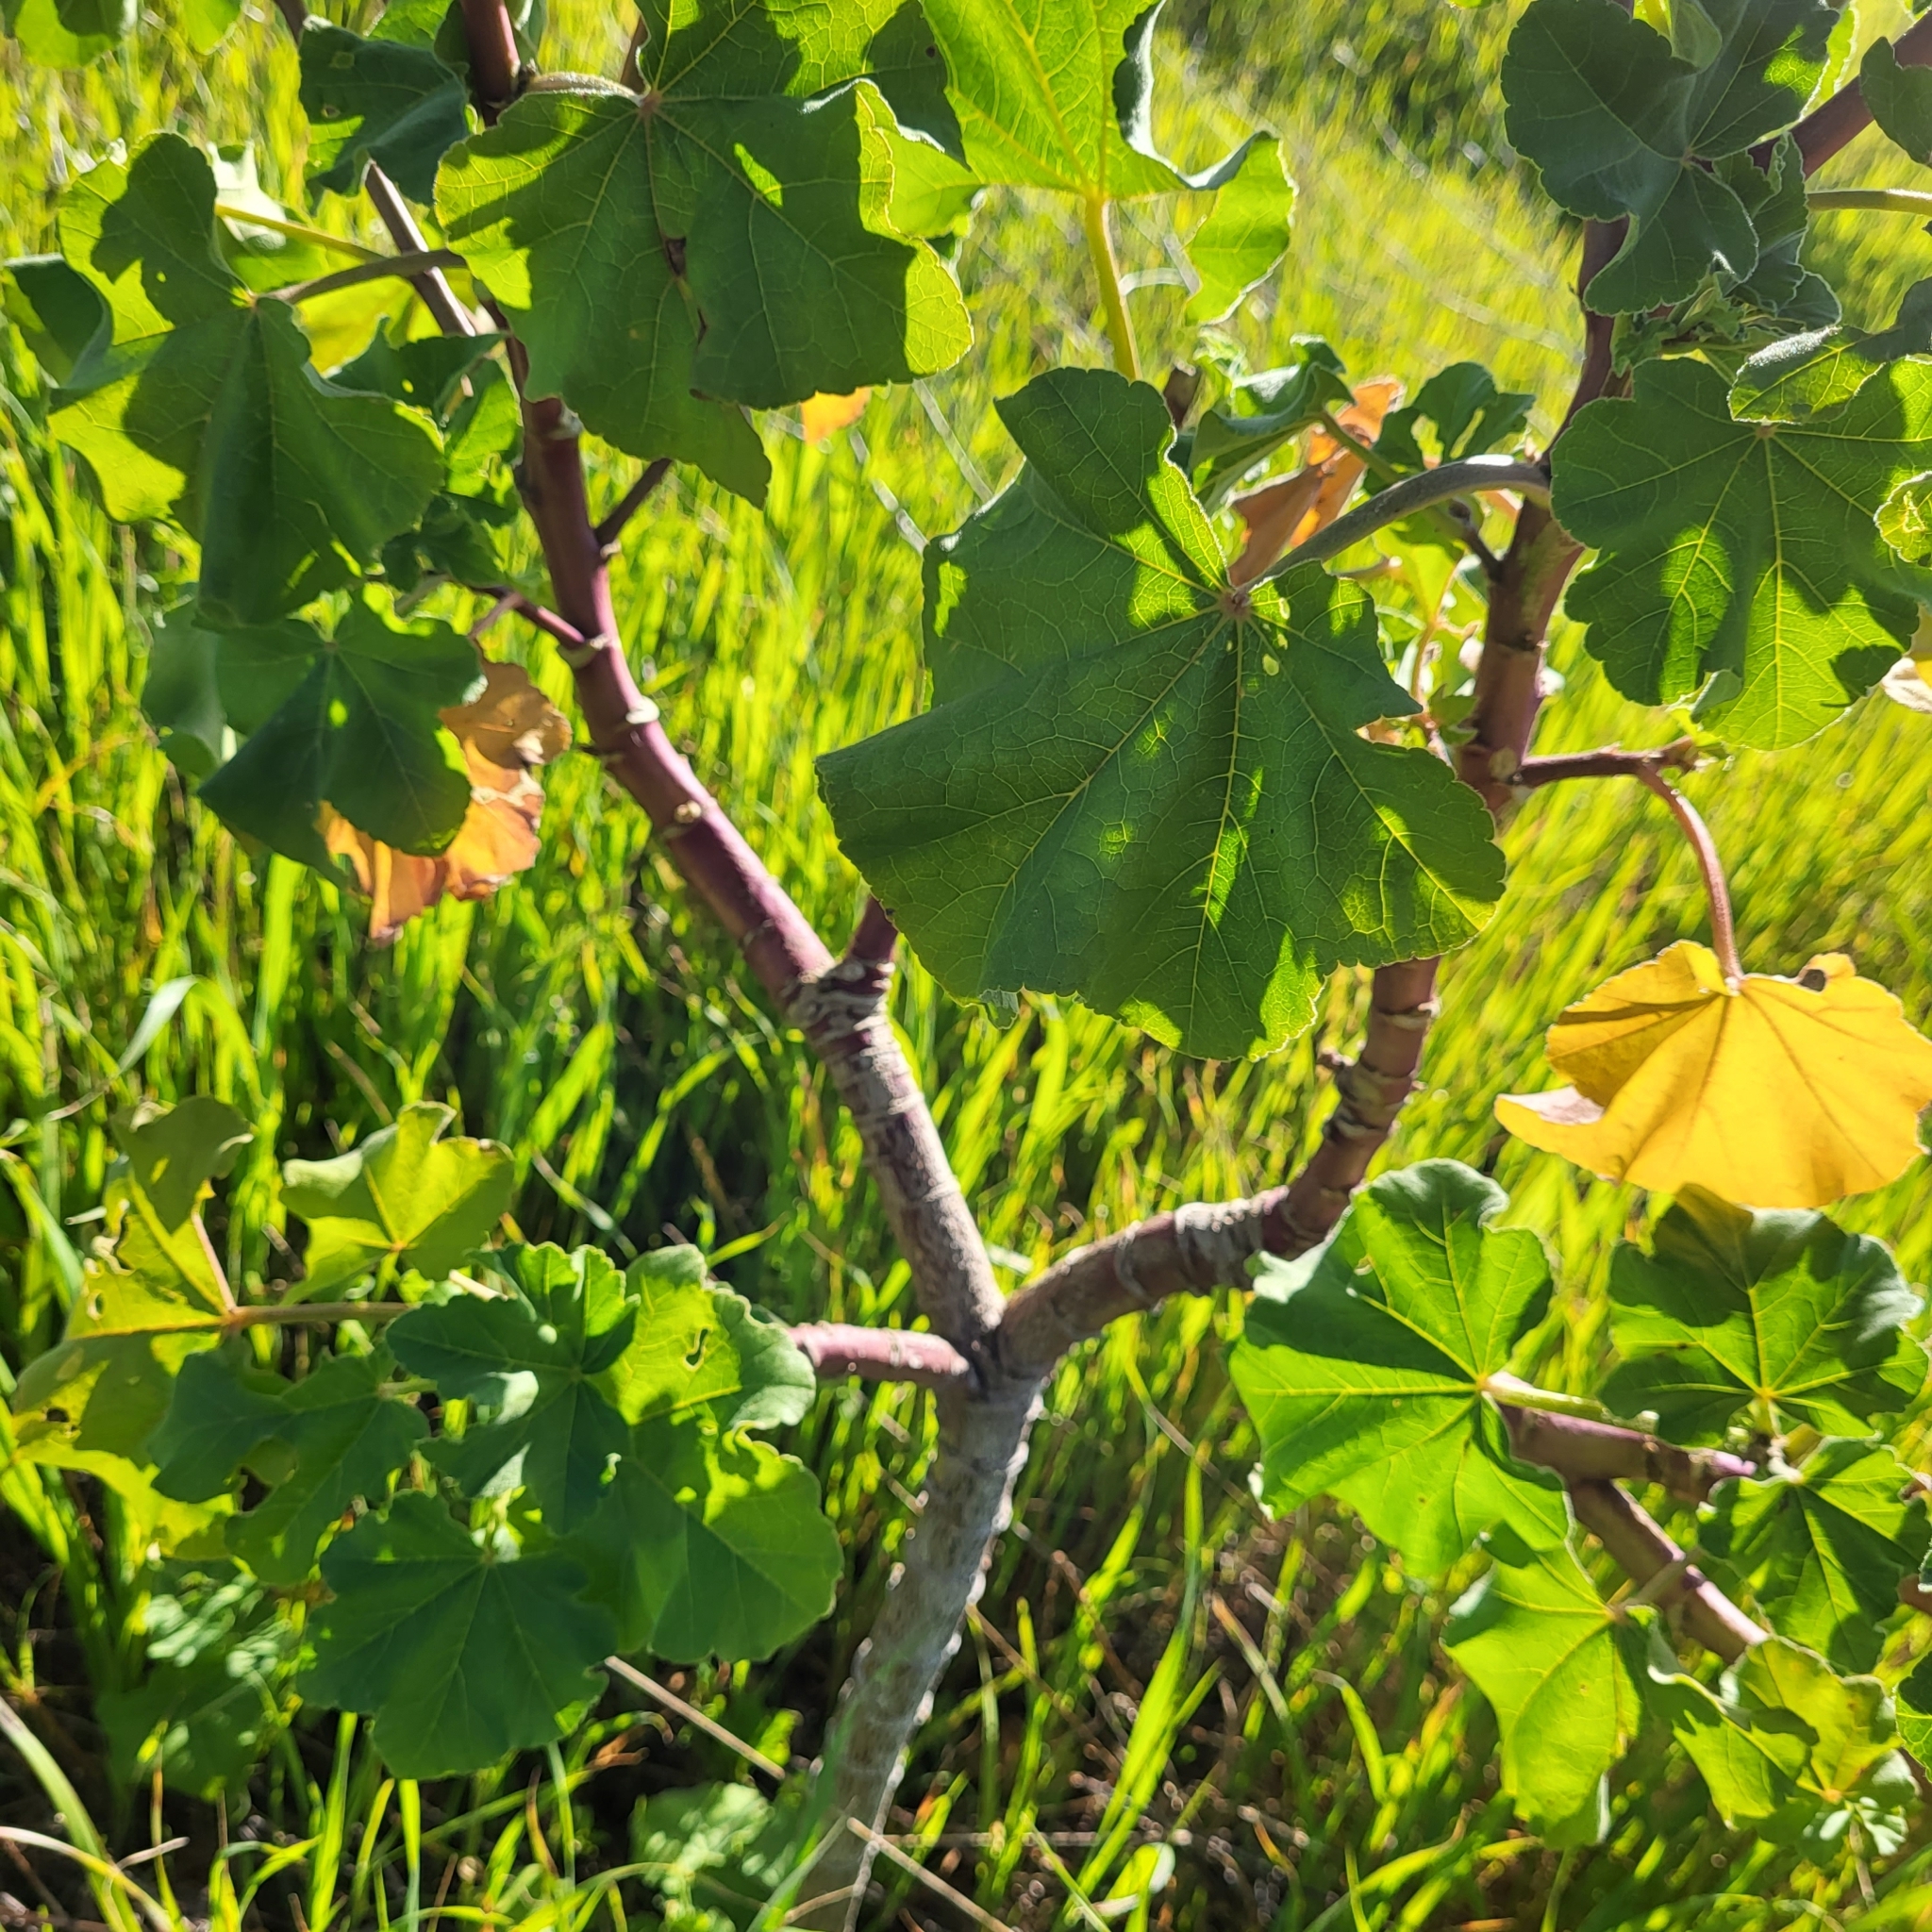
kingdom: Plantae
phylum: Tracheophyta
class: Magnoliopsida
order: Malvales
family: Malvaceae
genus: Malva
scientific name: Malva arborea
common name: Tree mallow
